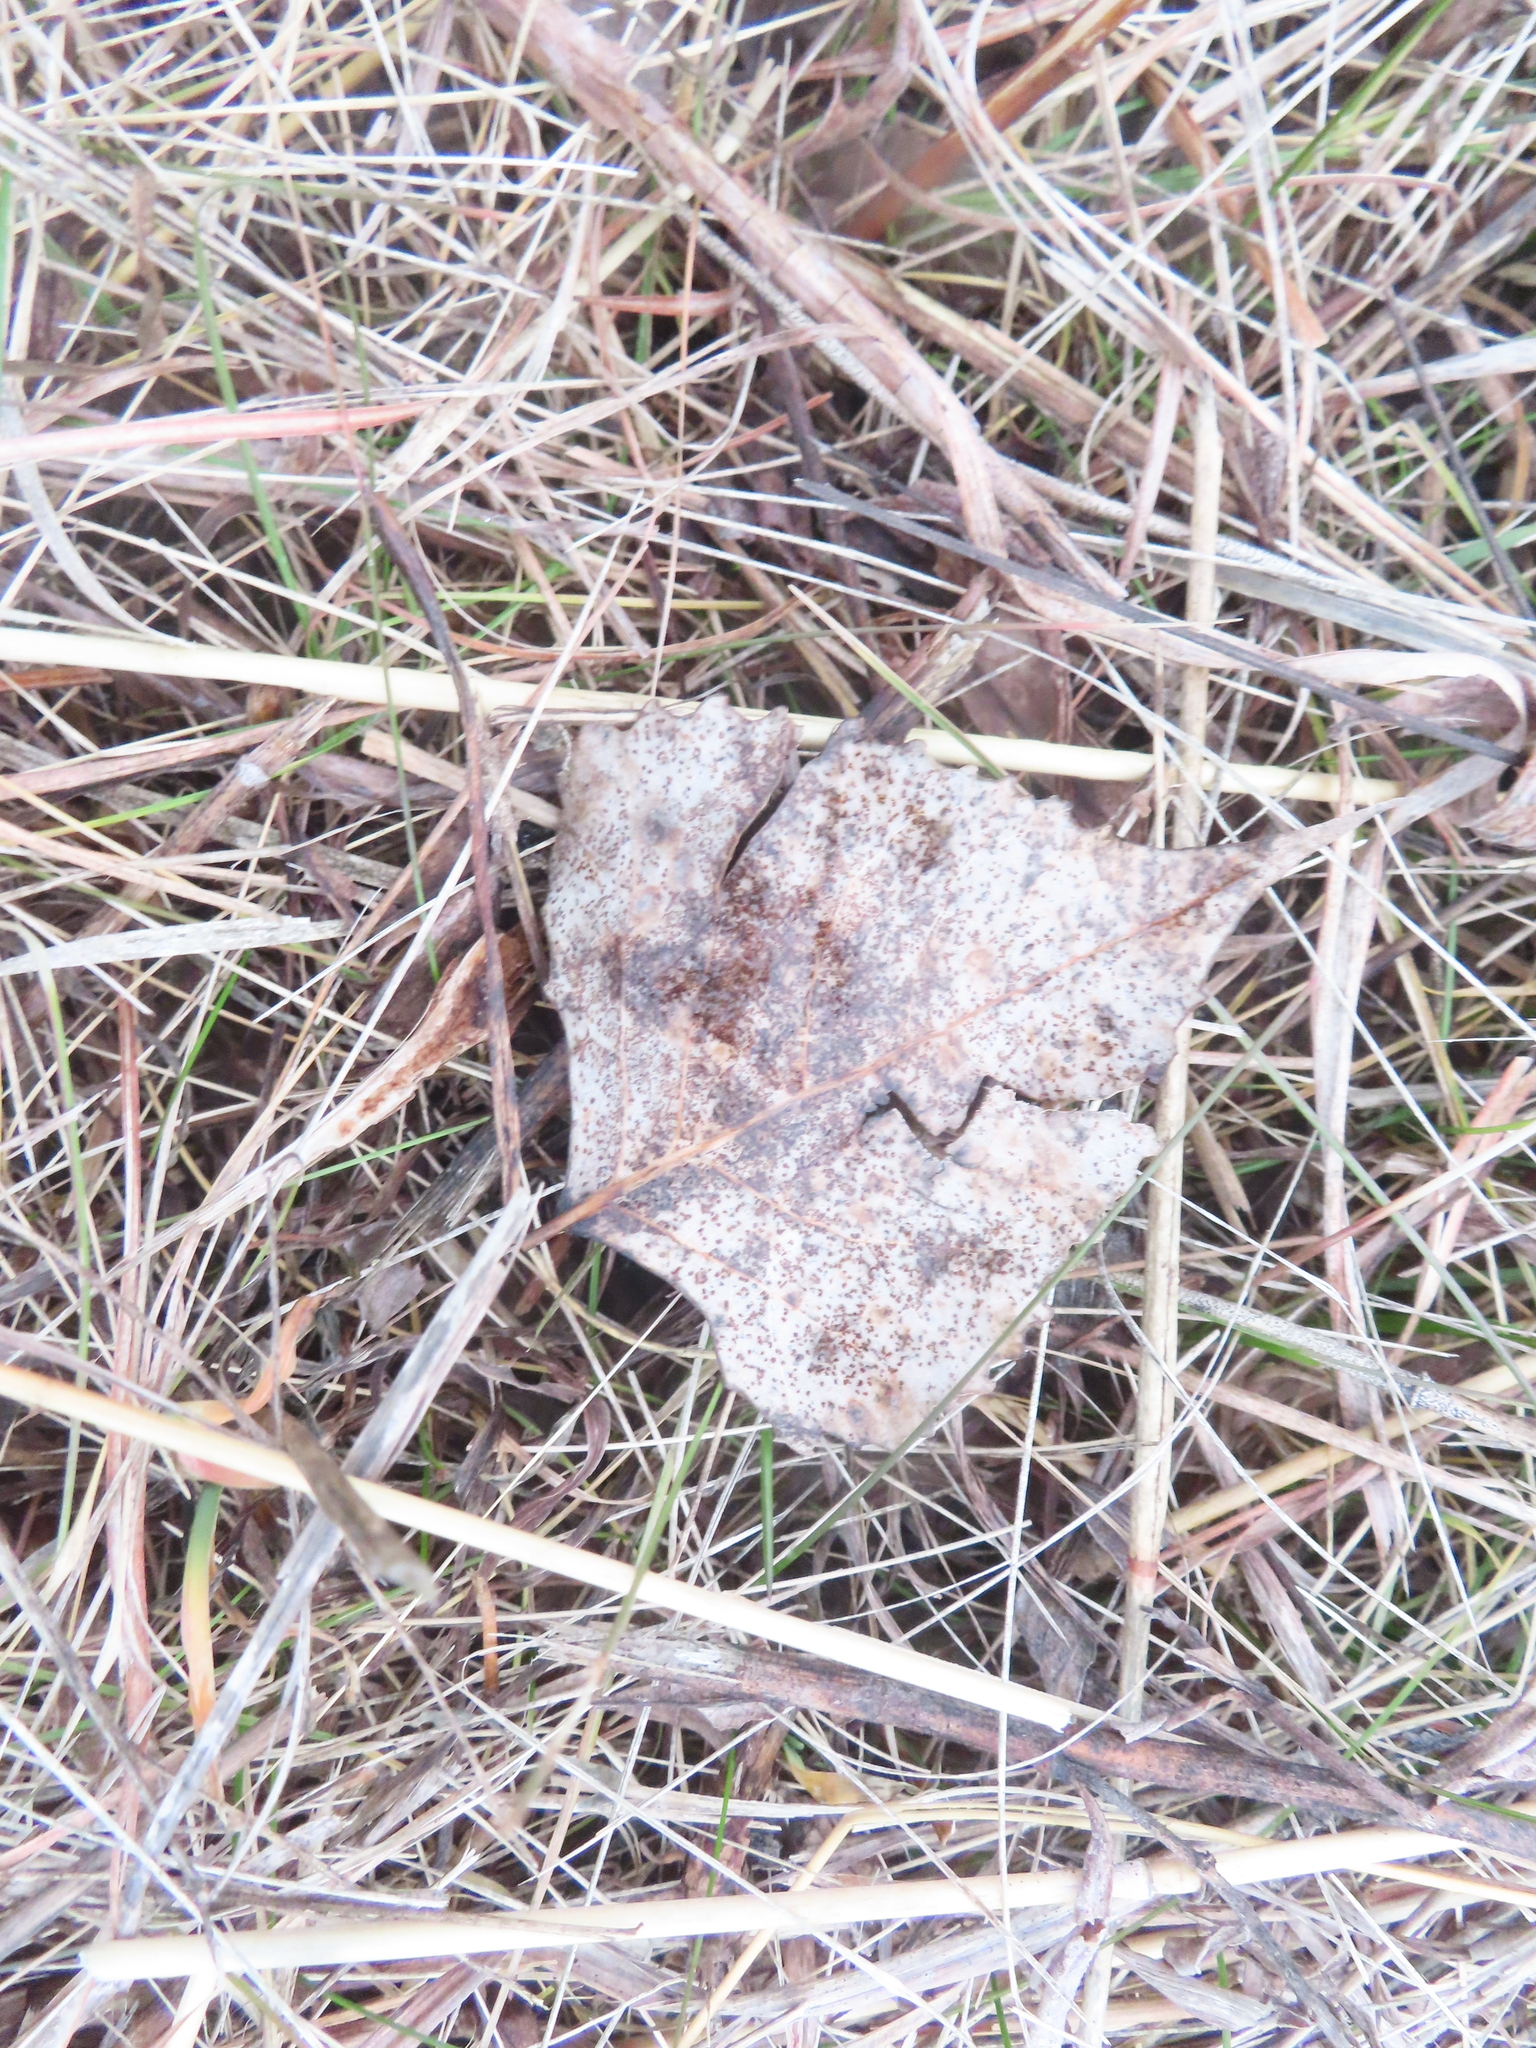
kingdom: Plantae
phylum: Tracheophyta
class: Magnoliopsida
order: Malpighiales
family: Salicaceae
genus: Populus
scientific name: Populus deltoides
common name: Eastern cottonwood
